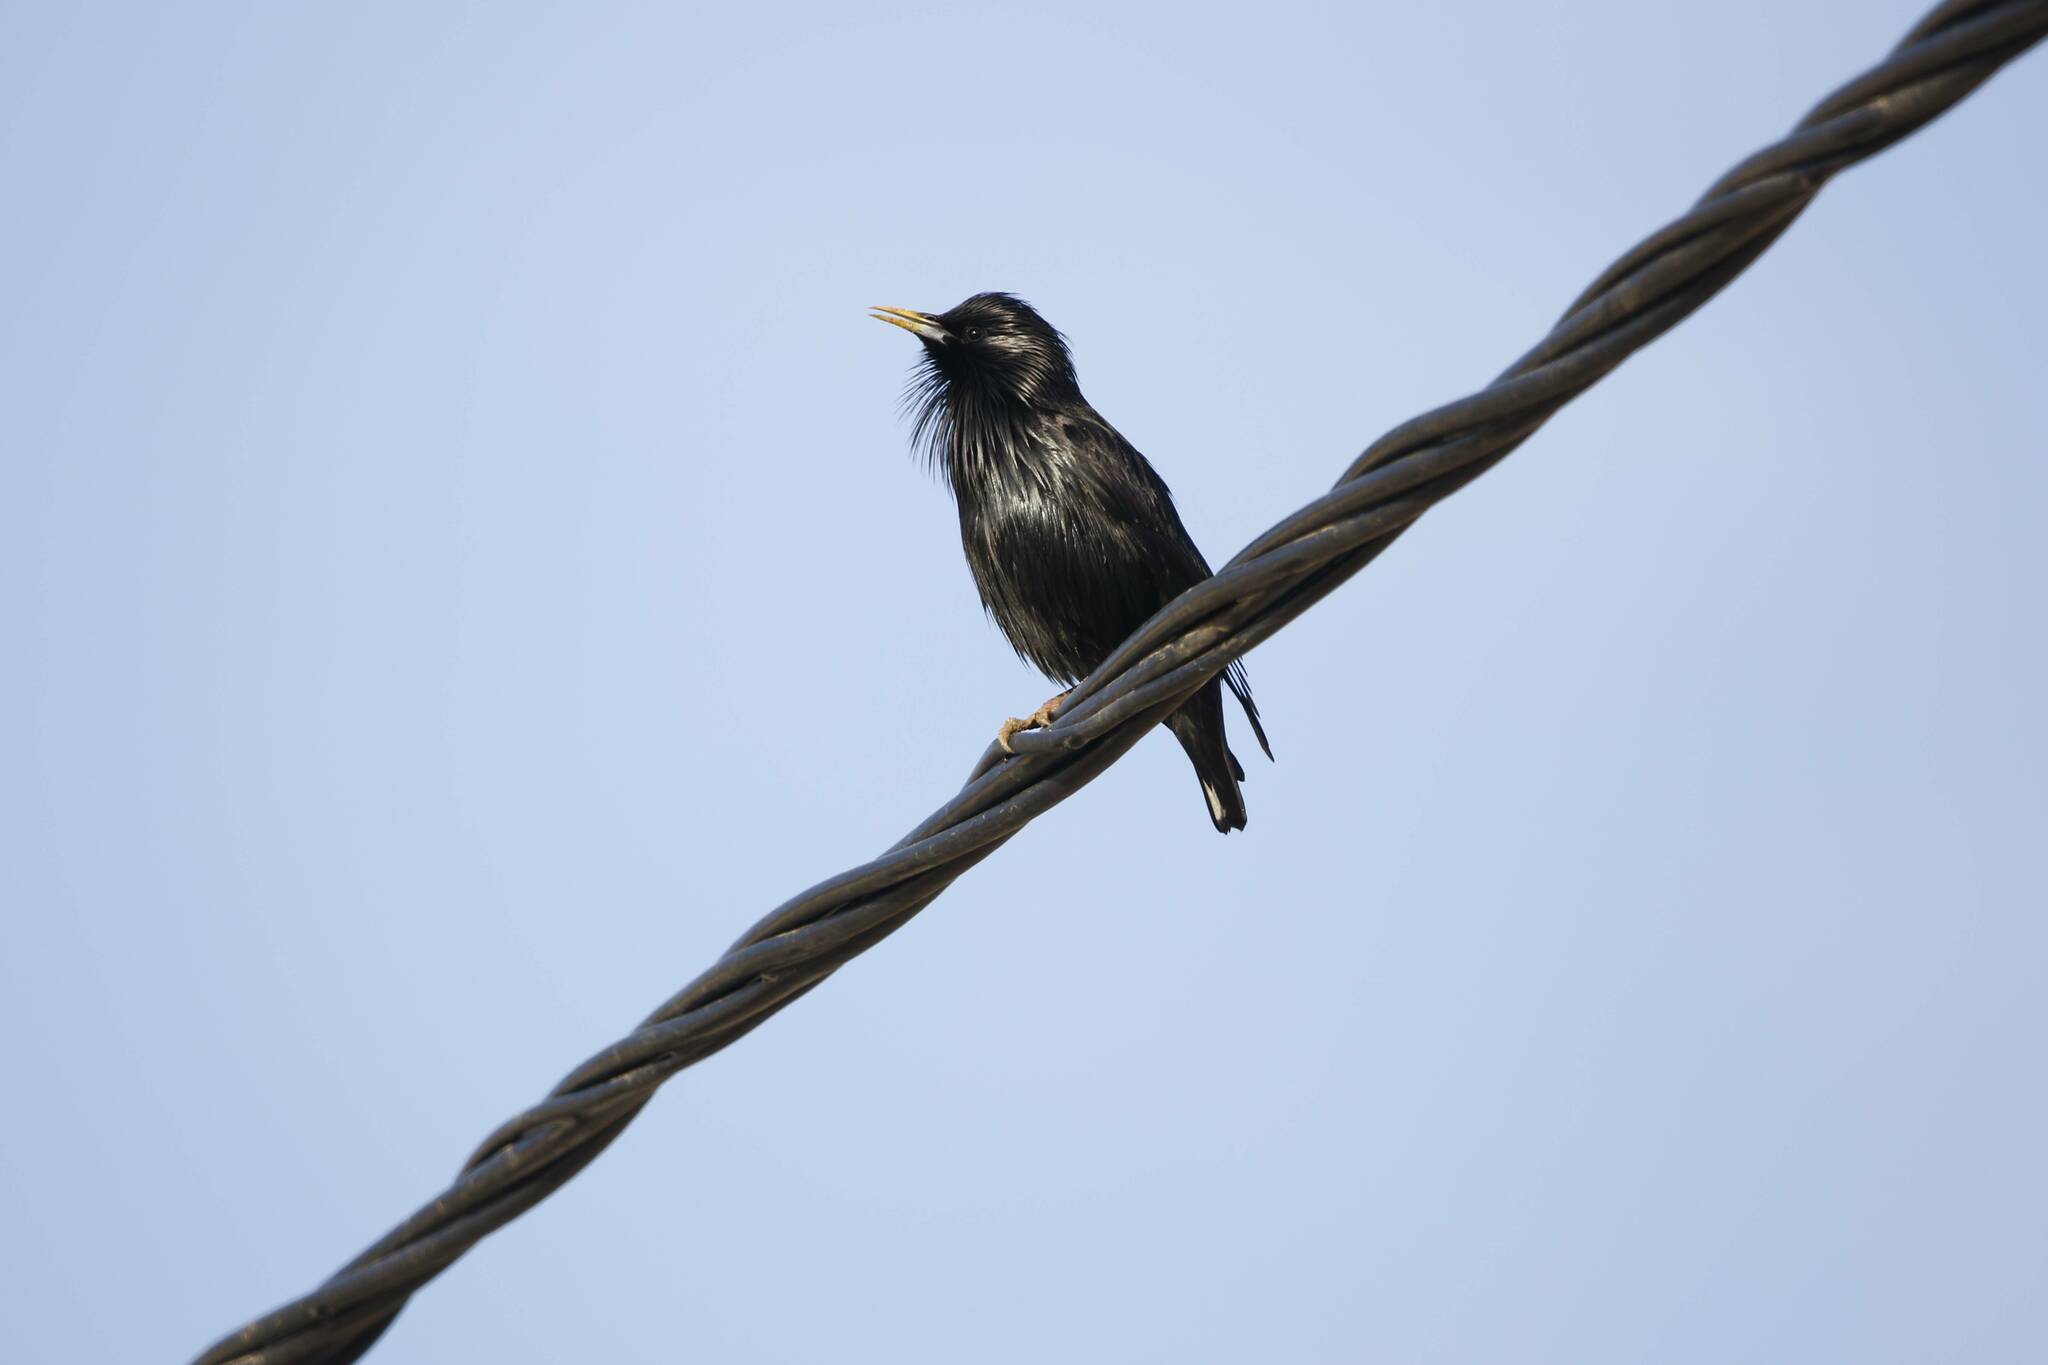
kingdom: Animalia
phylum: Chordata
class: Aves
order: Passeriformes
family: Sturnidae
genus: Sturnus
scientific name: Sturnus unicolor
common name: Spotless starling
